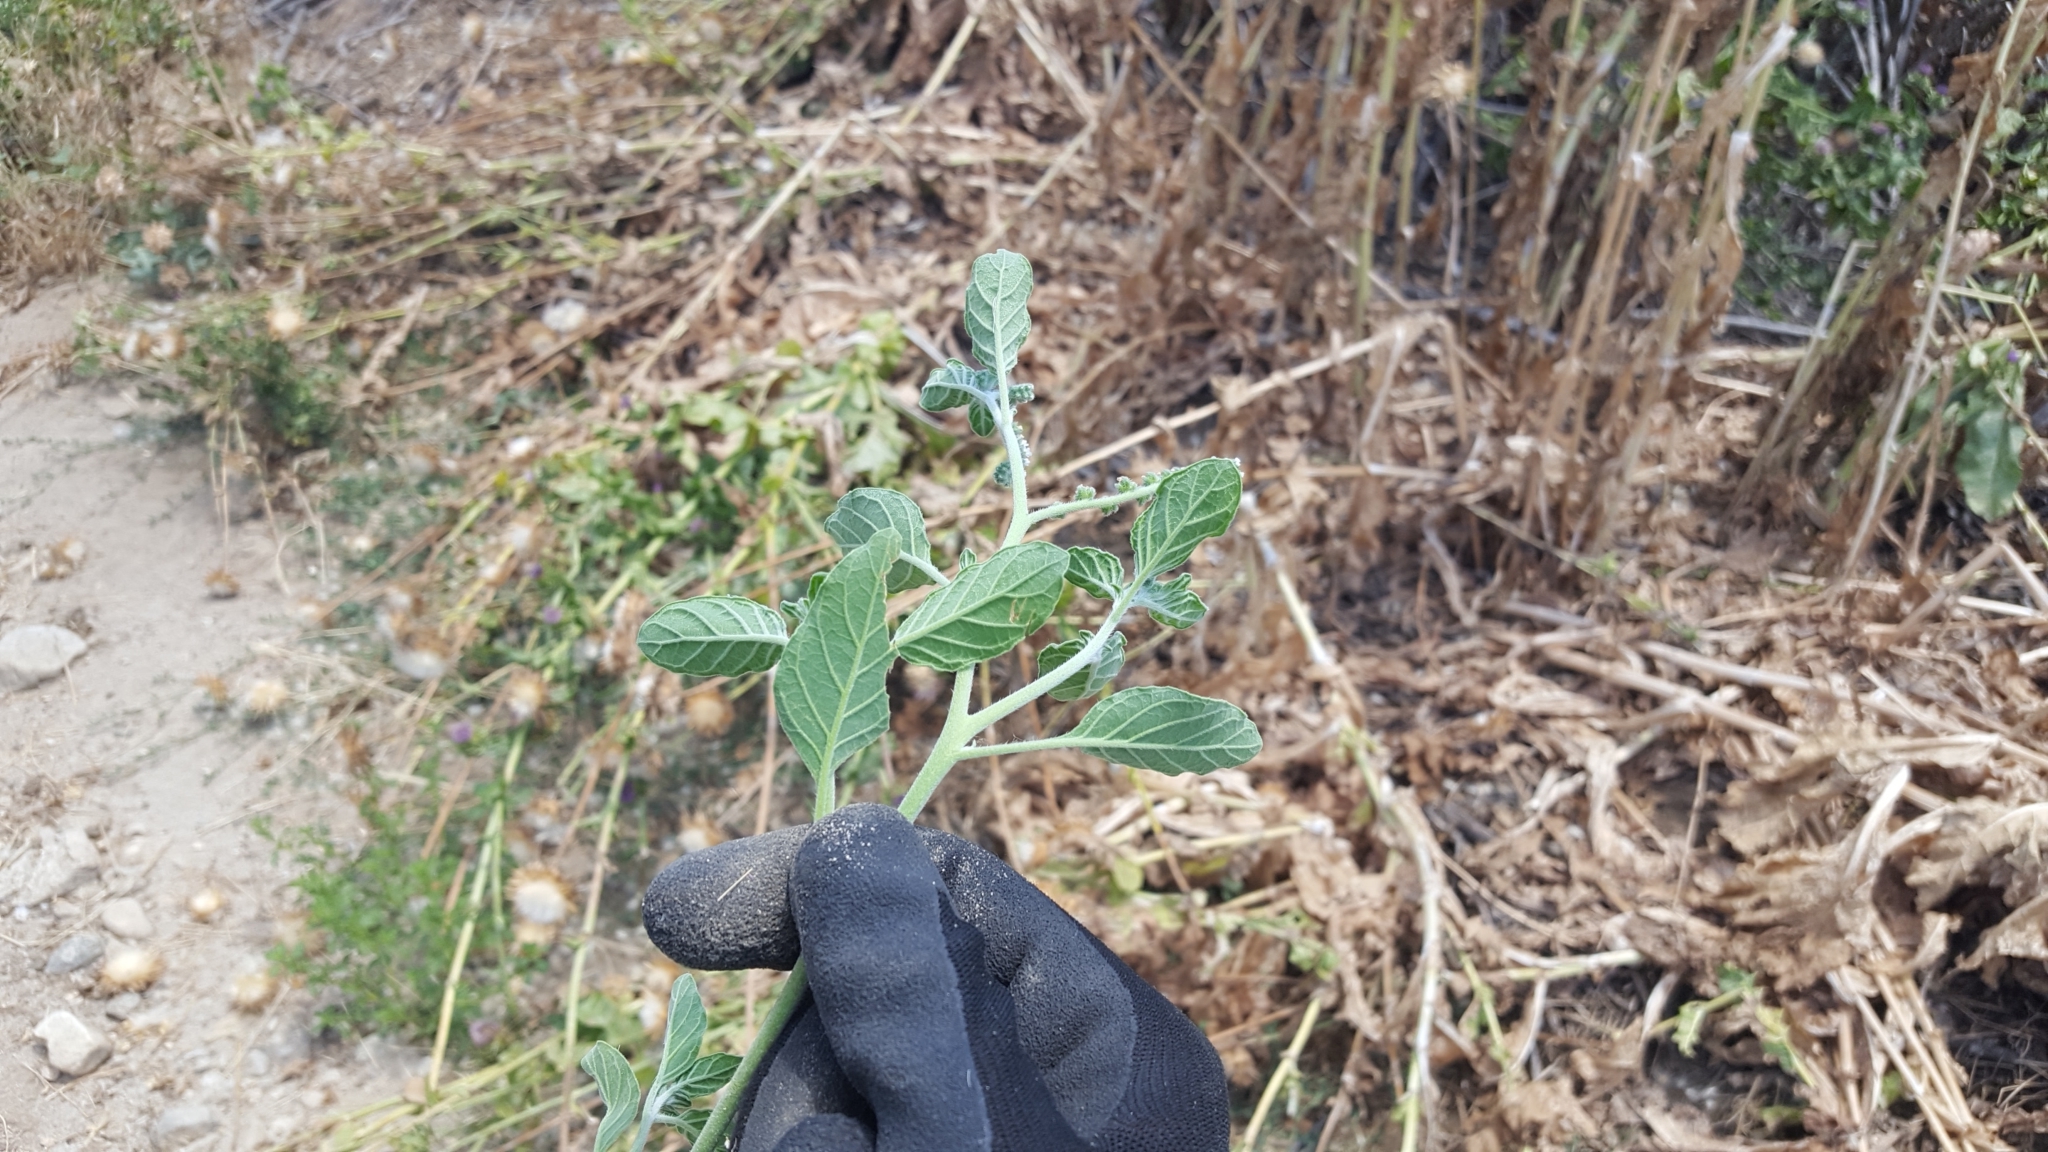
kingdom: Plantae
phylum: Tracheophyta
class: Magnoliopsida
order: Boraginales
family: Heliotropiaceae
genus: Heliotropium
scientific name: Heliotropium europaeum
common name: European heliotrope
